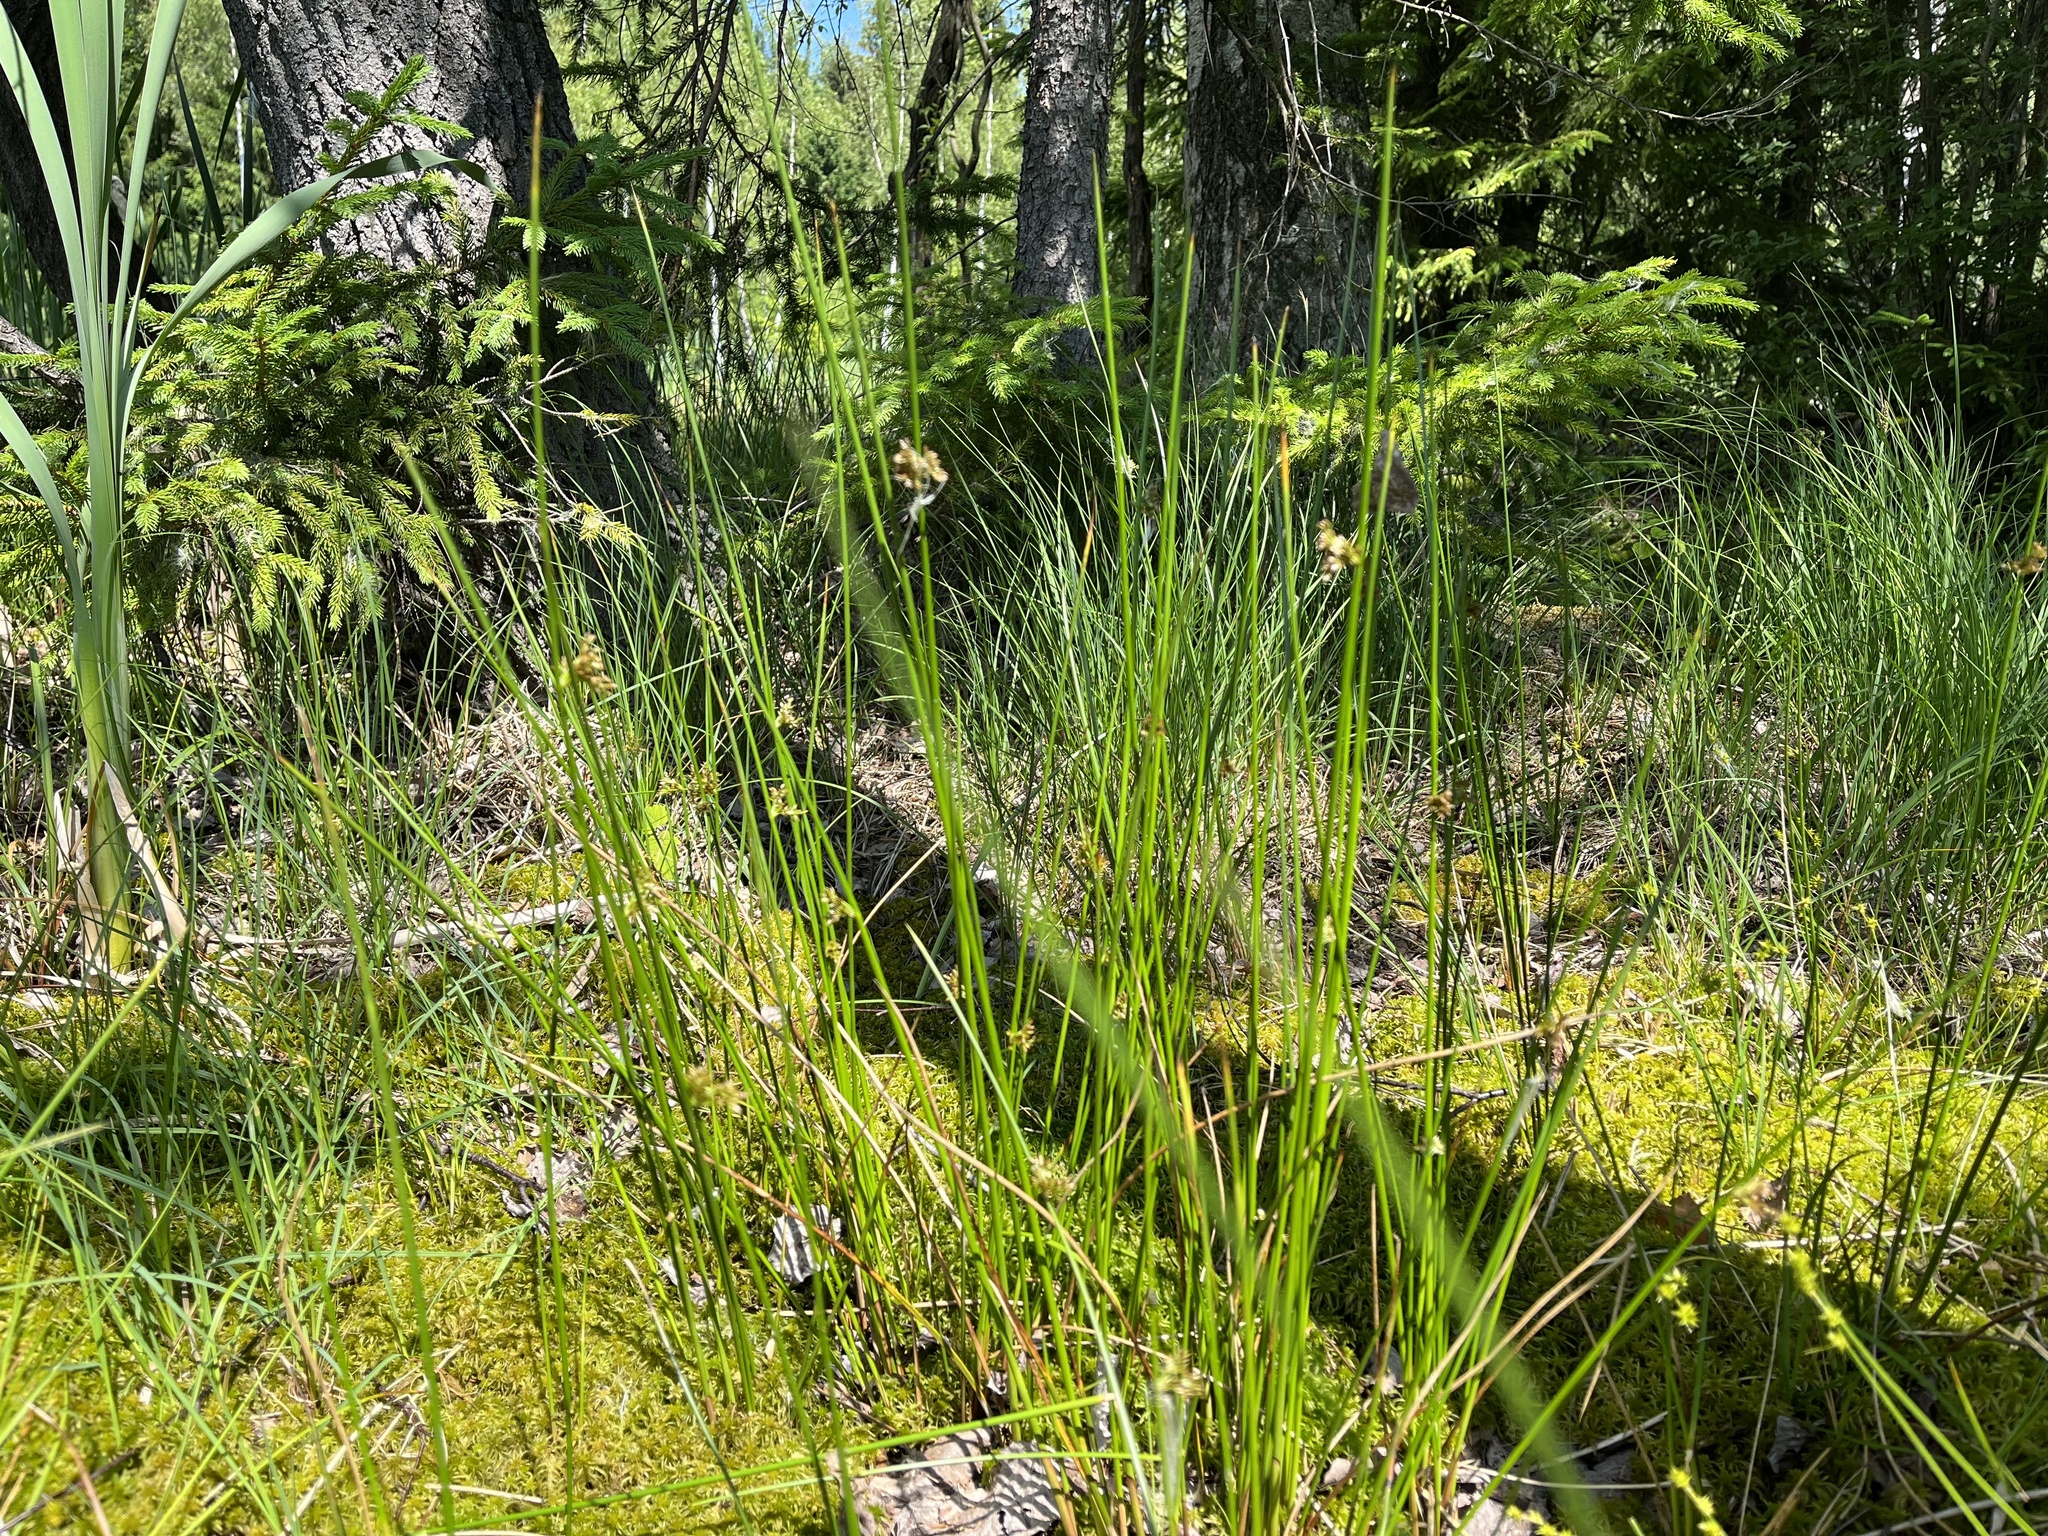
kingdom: Plantae
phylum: Tracheophyta
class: Liliopsida
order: Poales
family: Juncaceae
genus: Juncus
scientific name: Juncus effusus
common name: Soft rush
